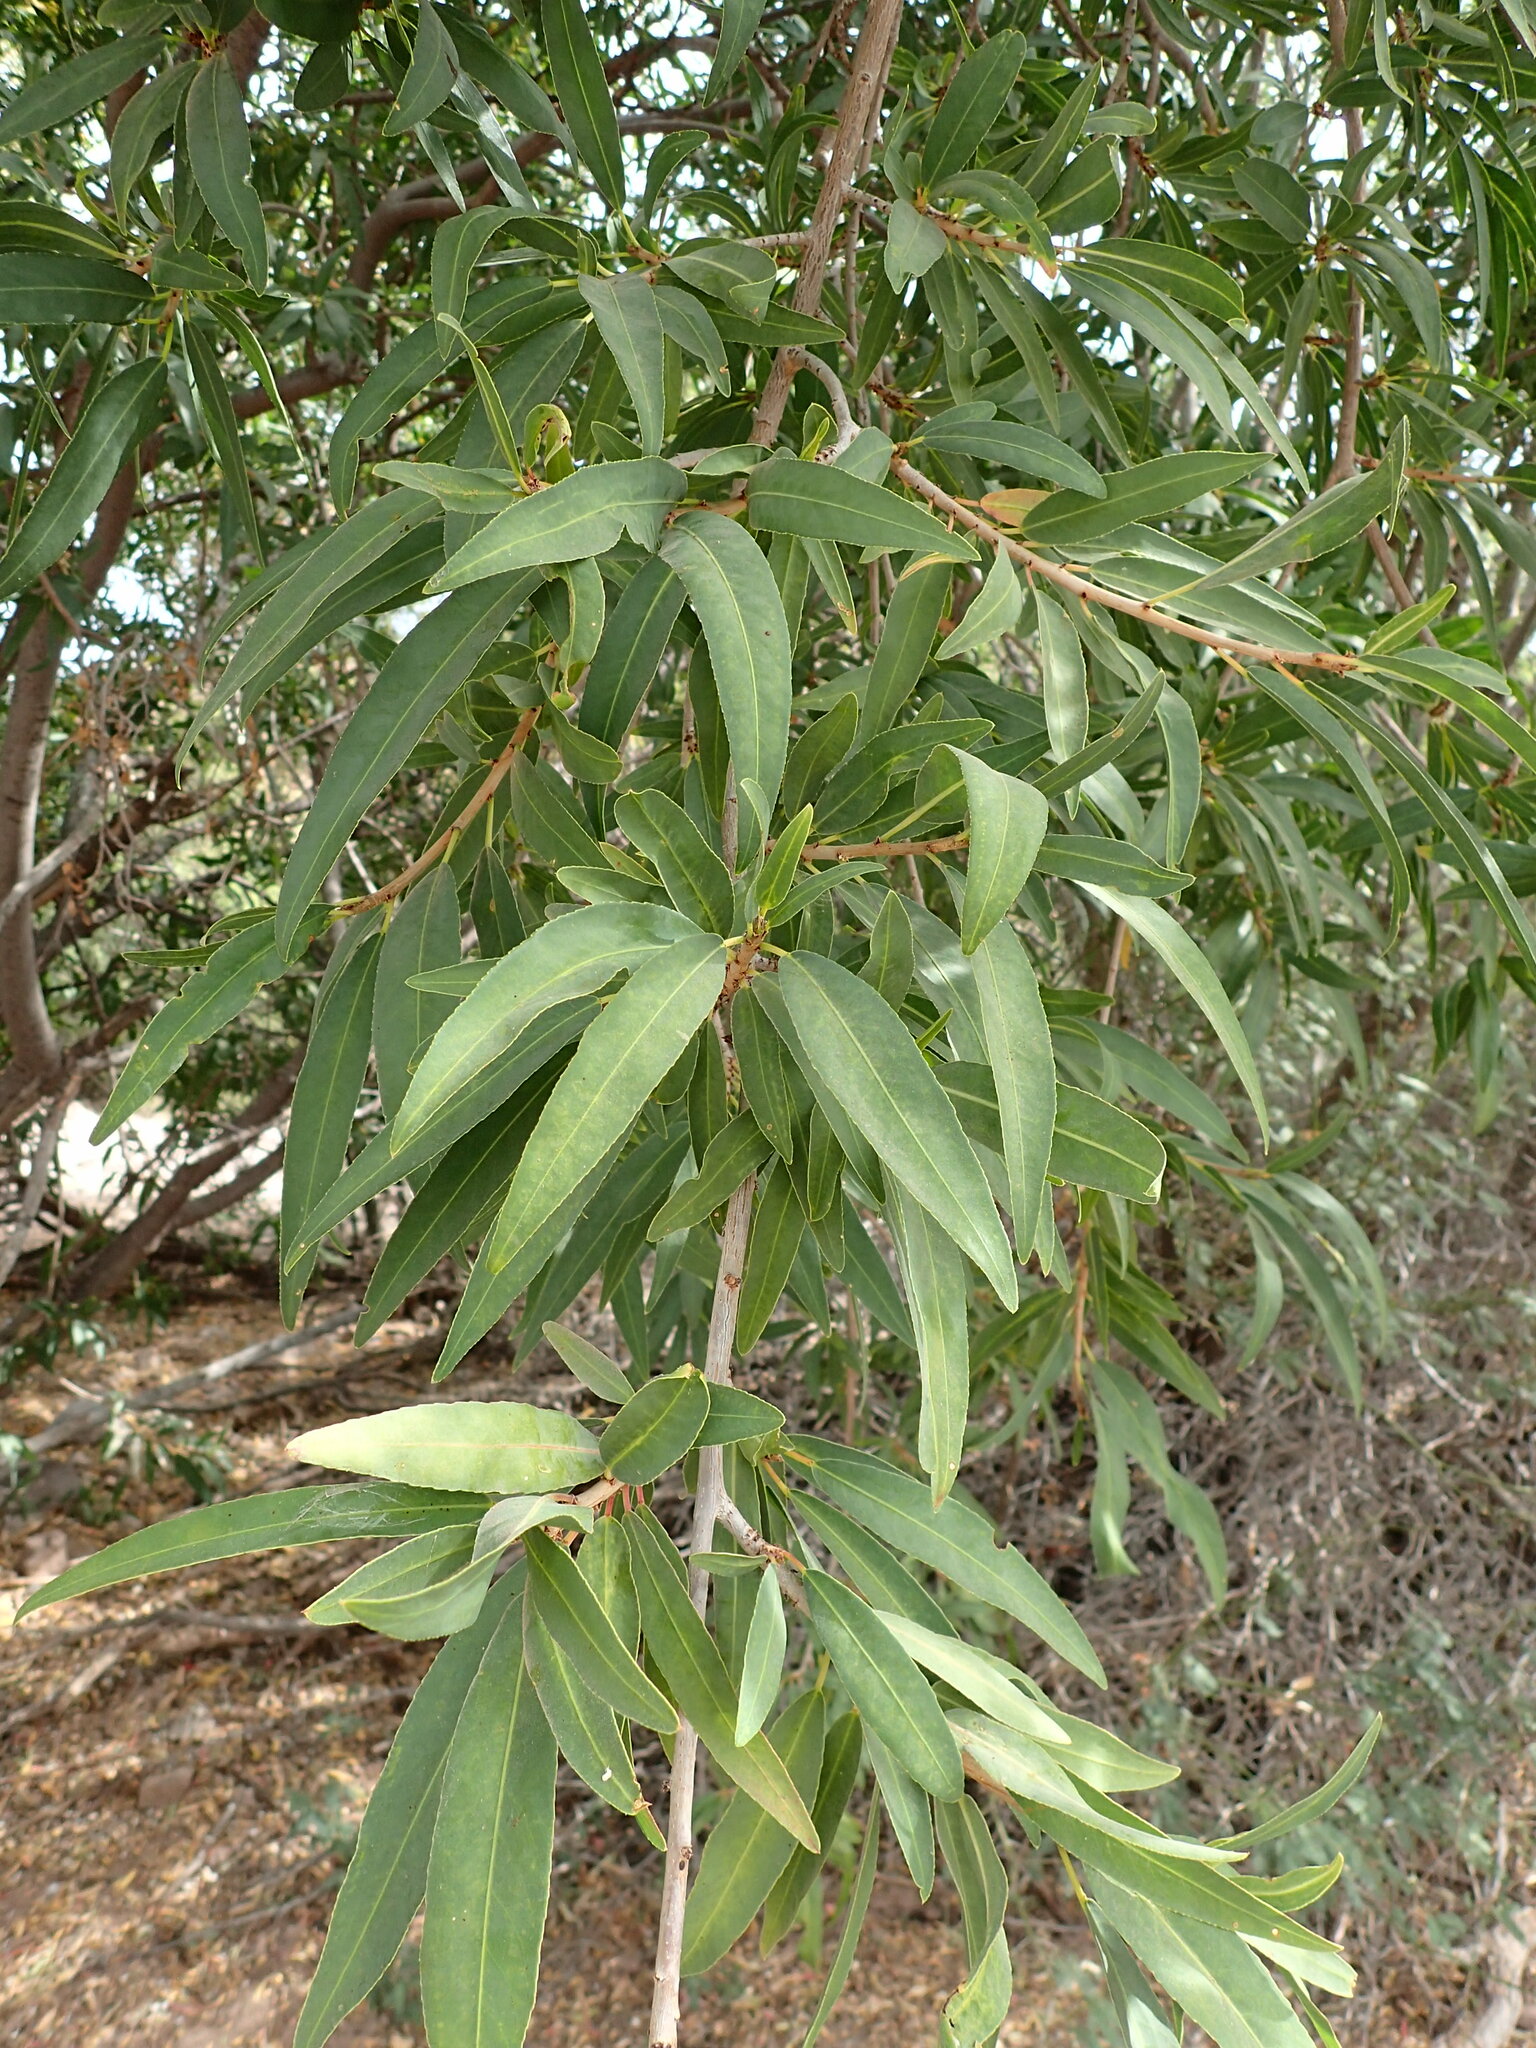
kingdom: Plantae
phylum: Tracheophyta
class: Magnoliopsida
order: Malpighiales
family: Euphorbiaceae
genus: Pleradenophora
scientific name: Pleradenophora bilocularis
